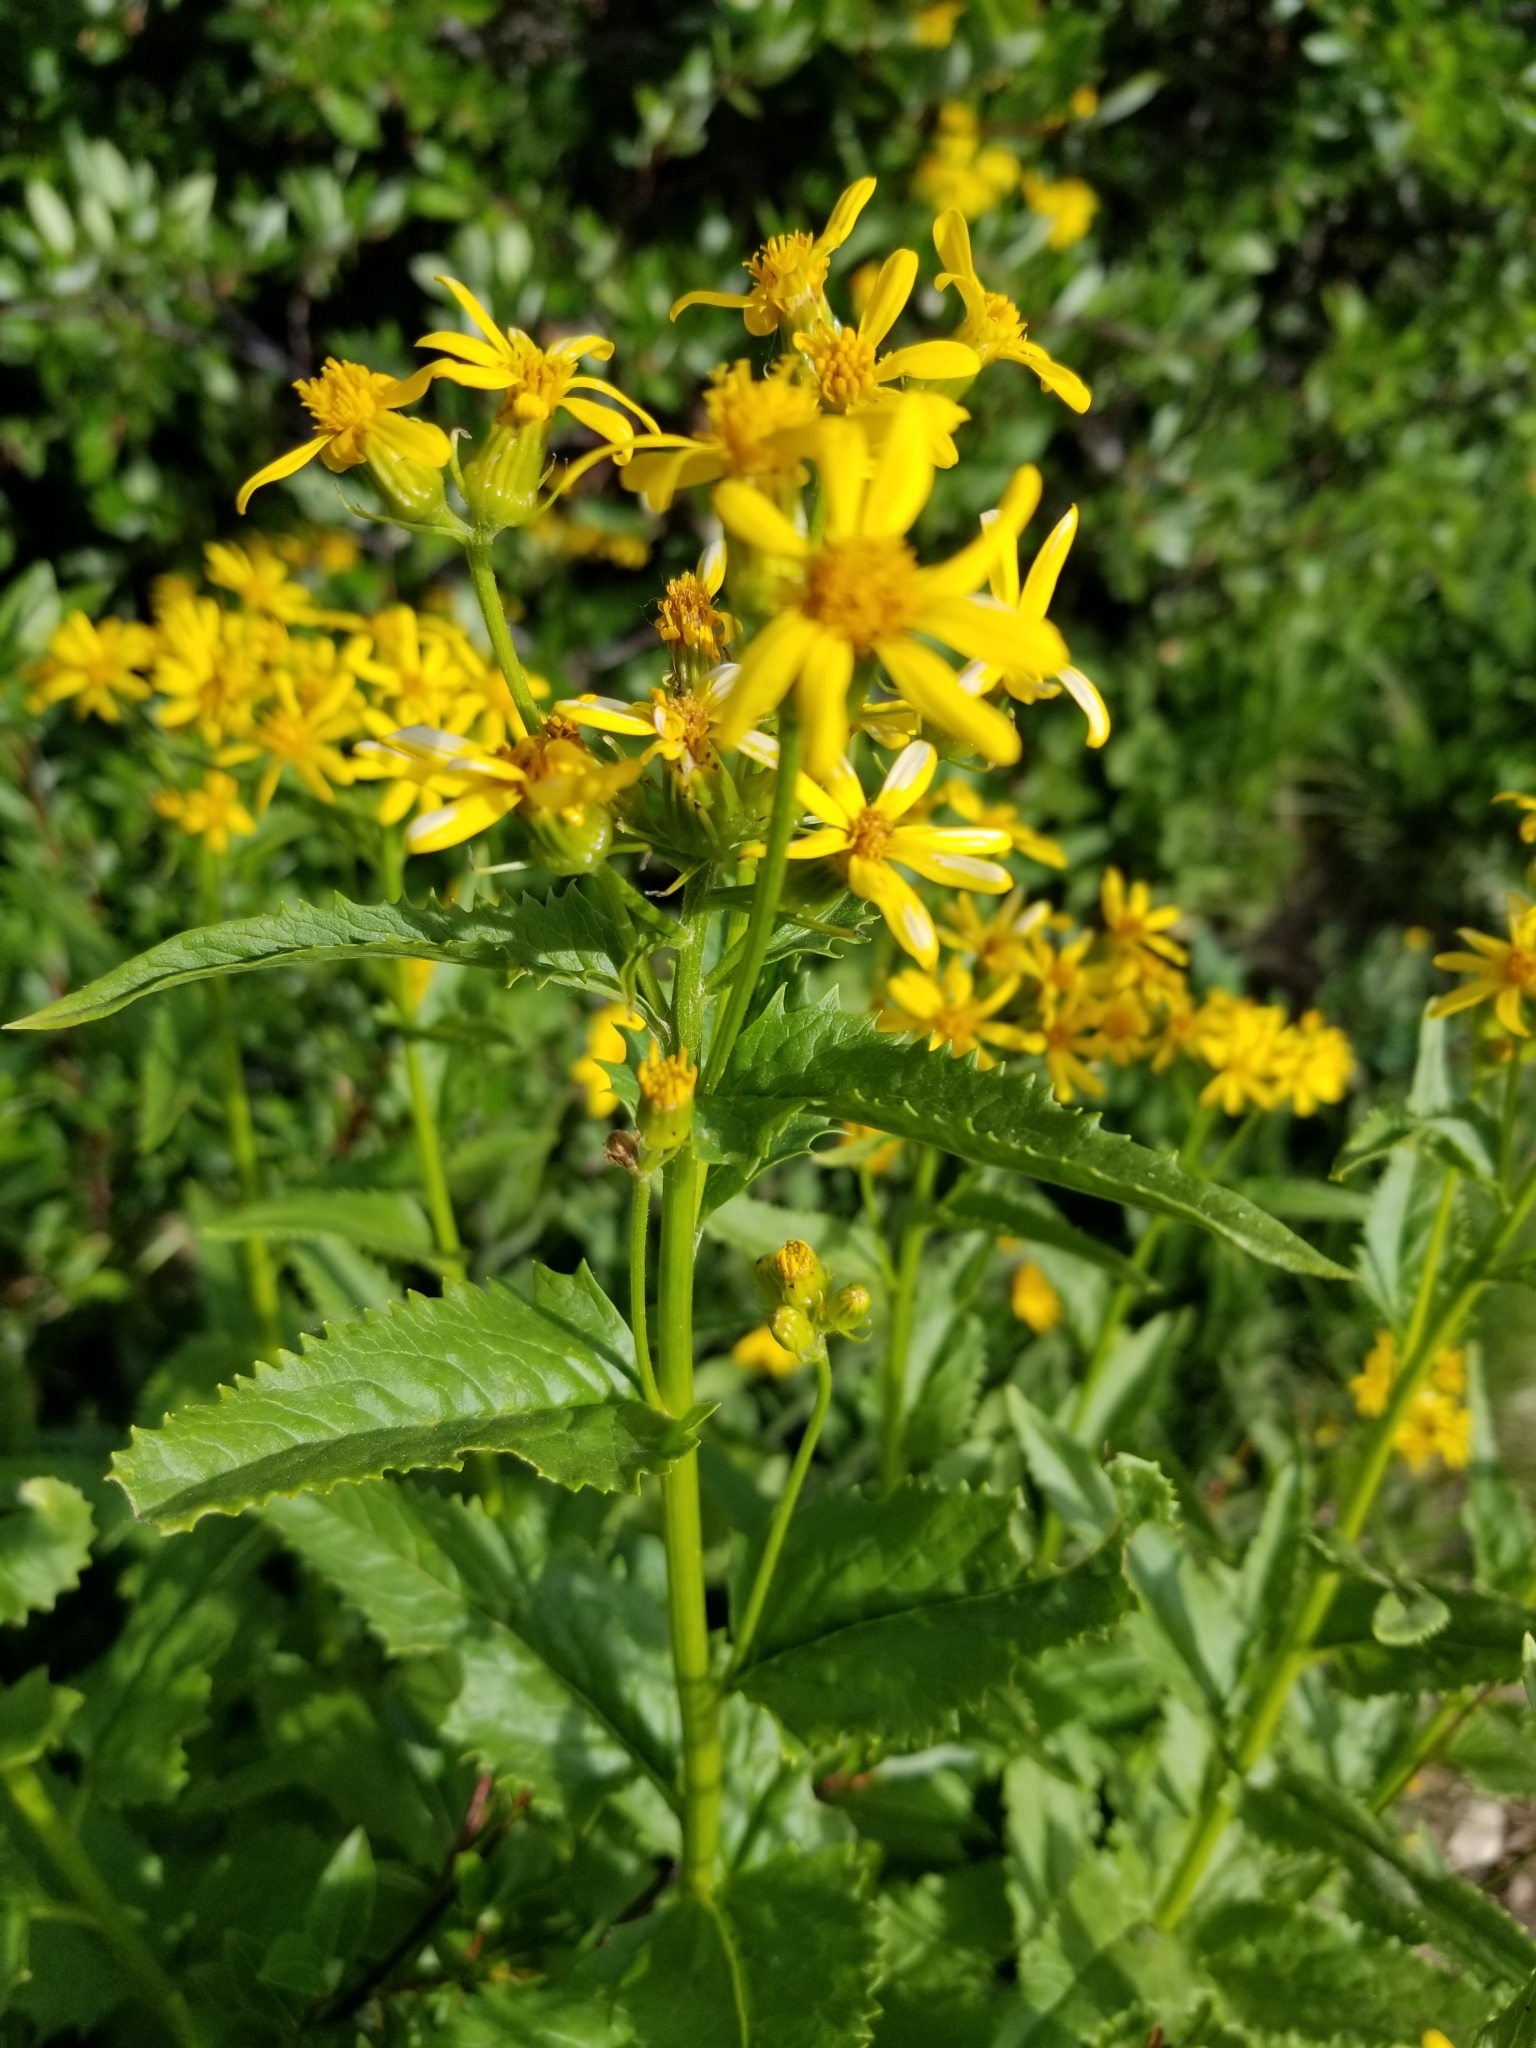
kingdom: Plantae
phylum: Tracheophyta
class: Magnoliopsida
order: Asterales
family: Asteraceae
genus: Senecio
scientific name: Senecio triangularis
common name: Arrowleaf butterweed
